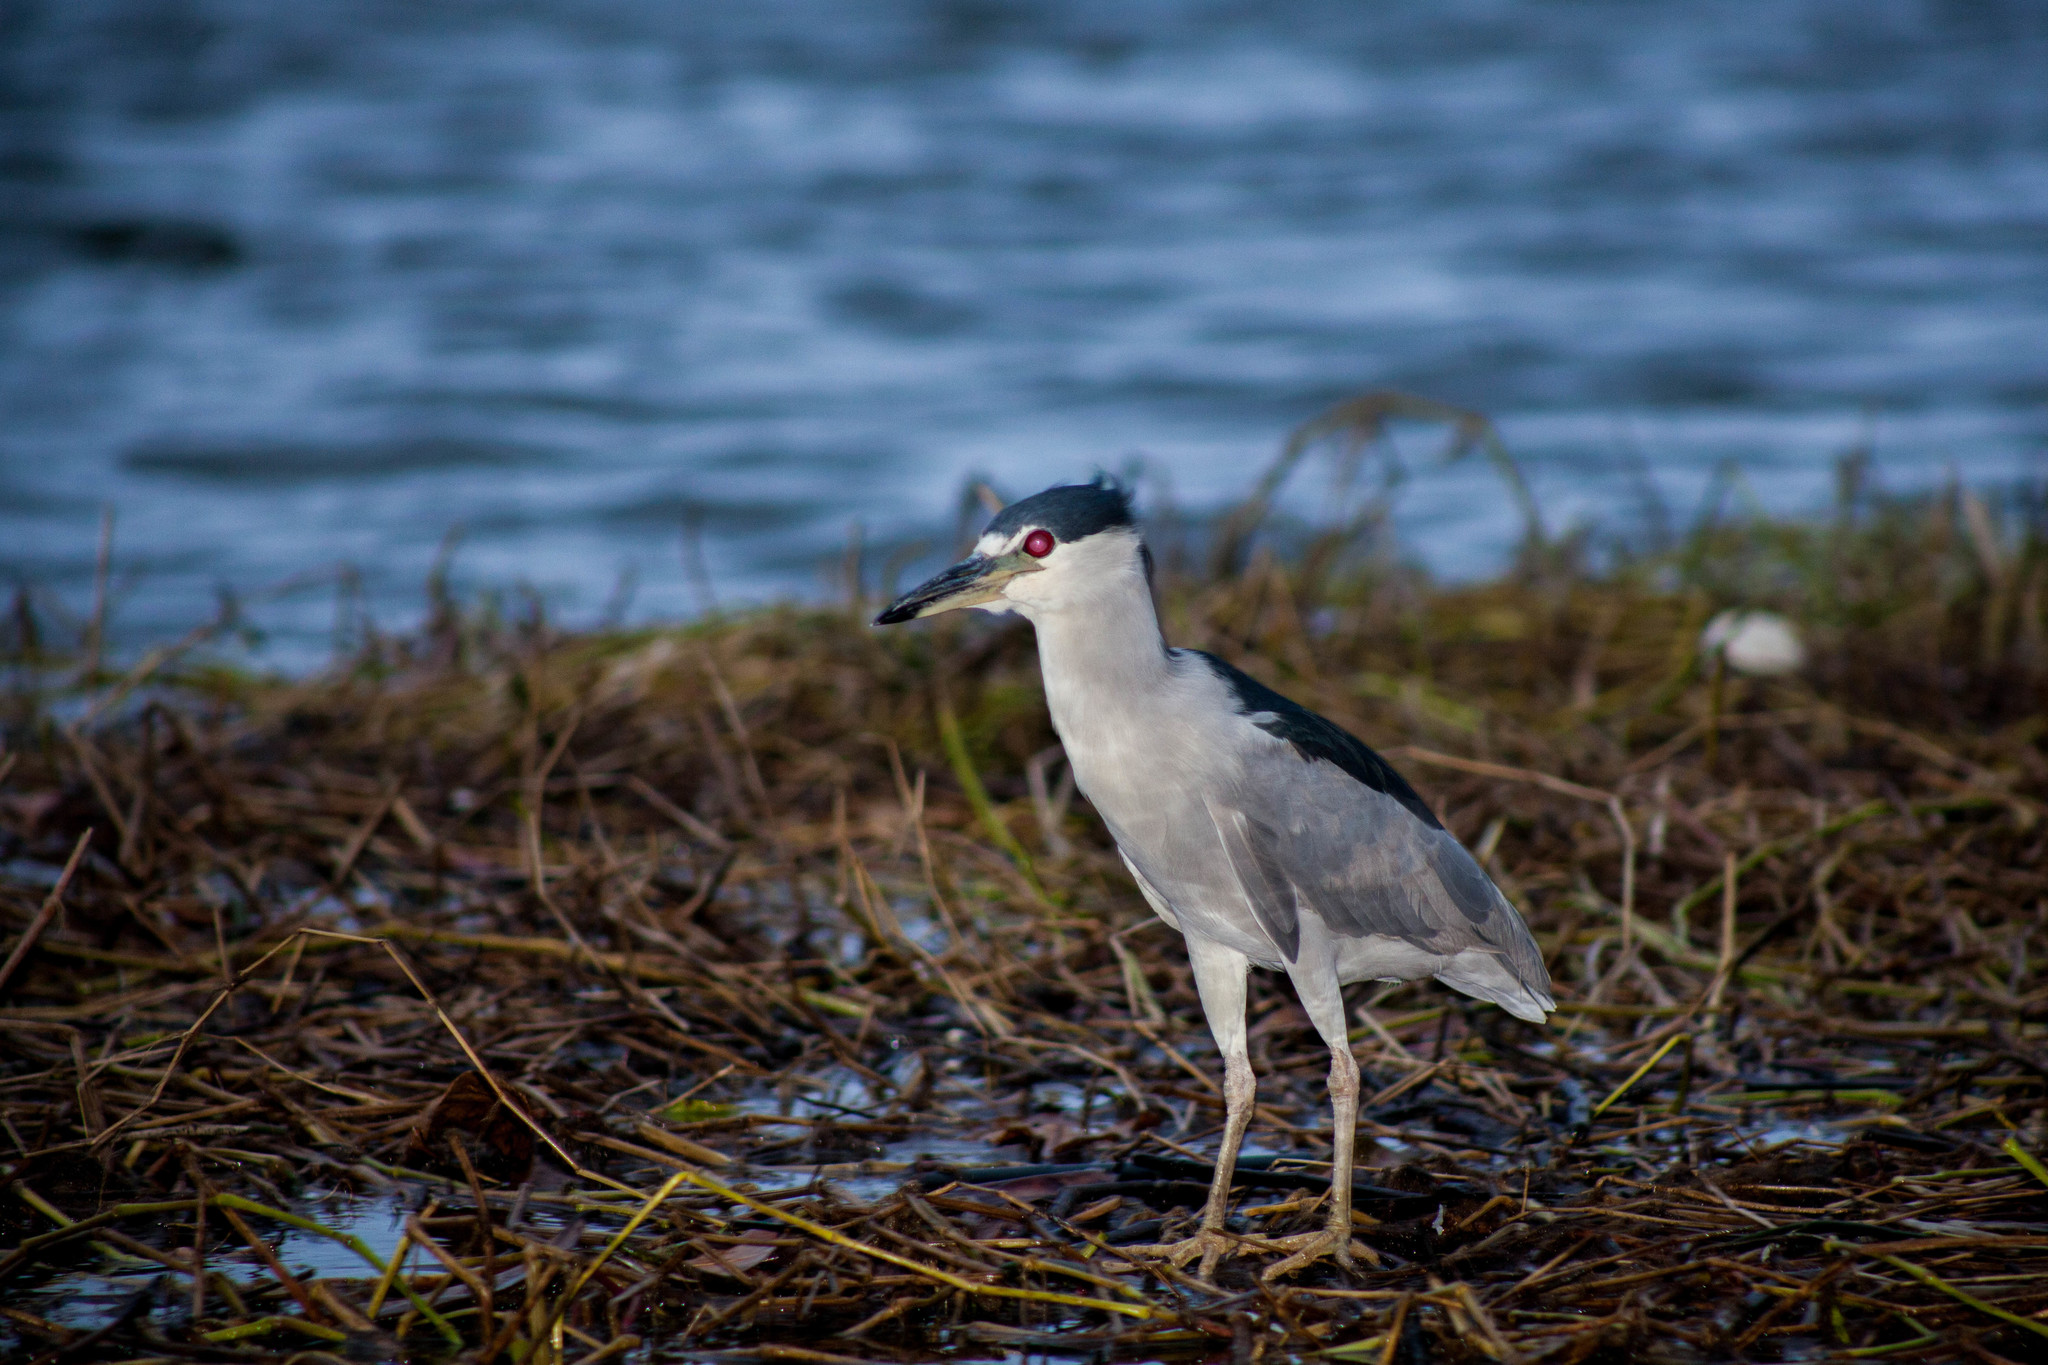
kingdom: Animalia
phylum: Chordata
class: Aves
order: Pelecaniformes
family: Ardeidae
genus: Nycticorax
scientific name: Nycticorax nycticorax
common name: Black-crowned night heron
